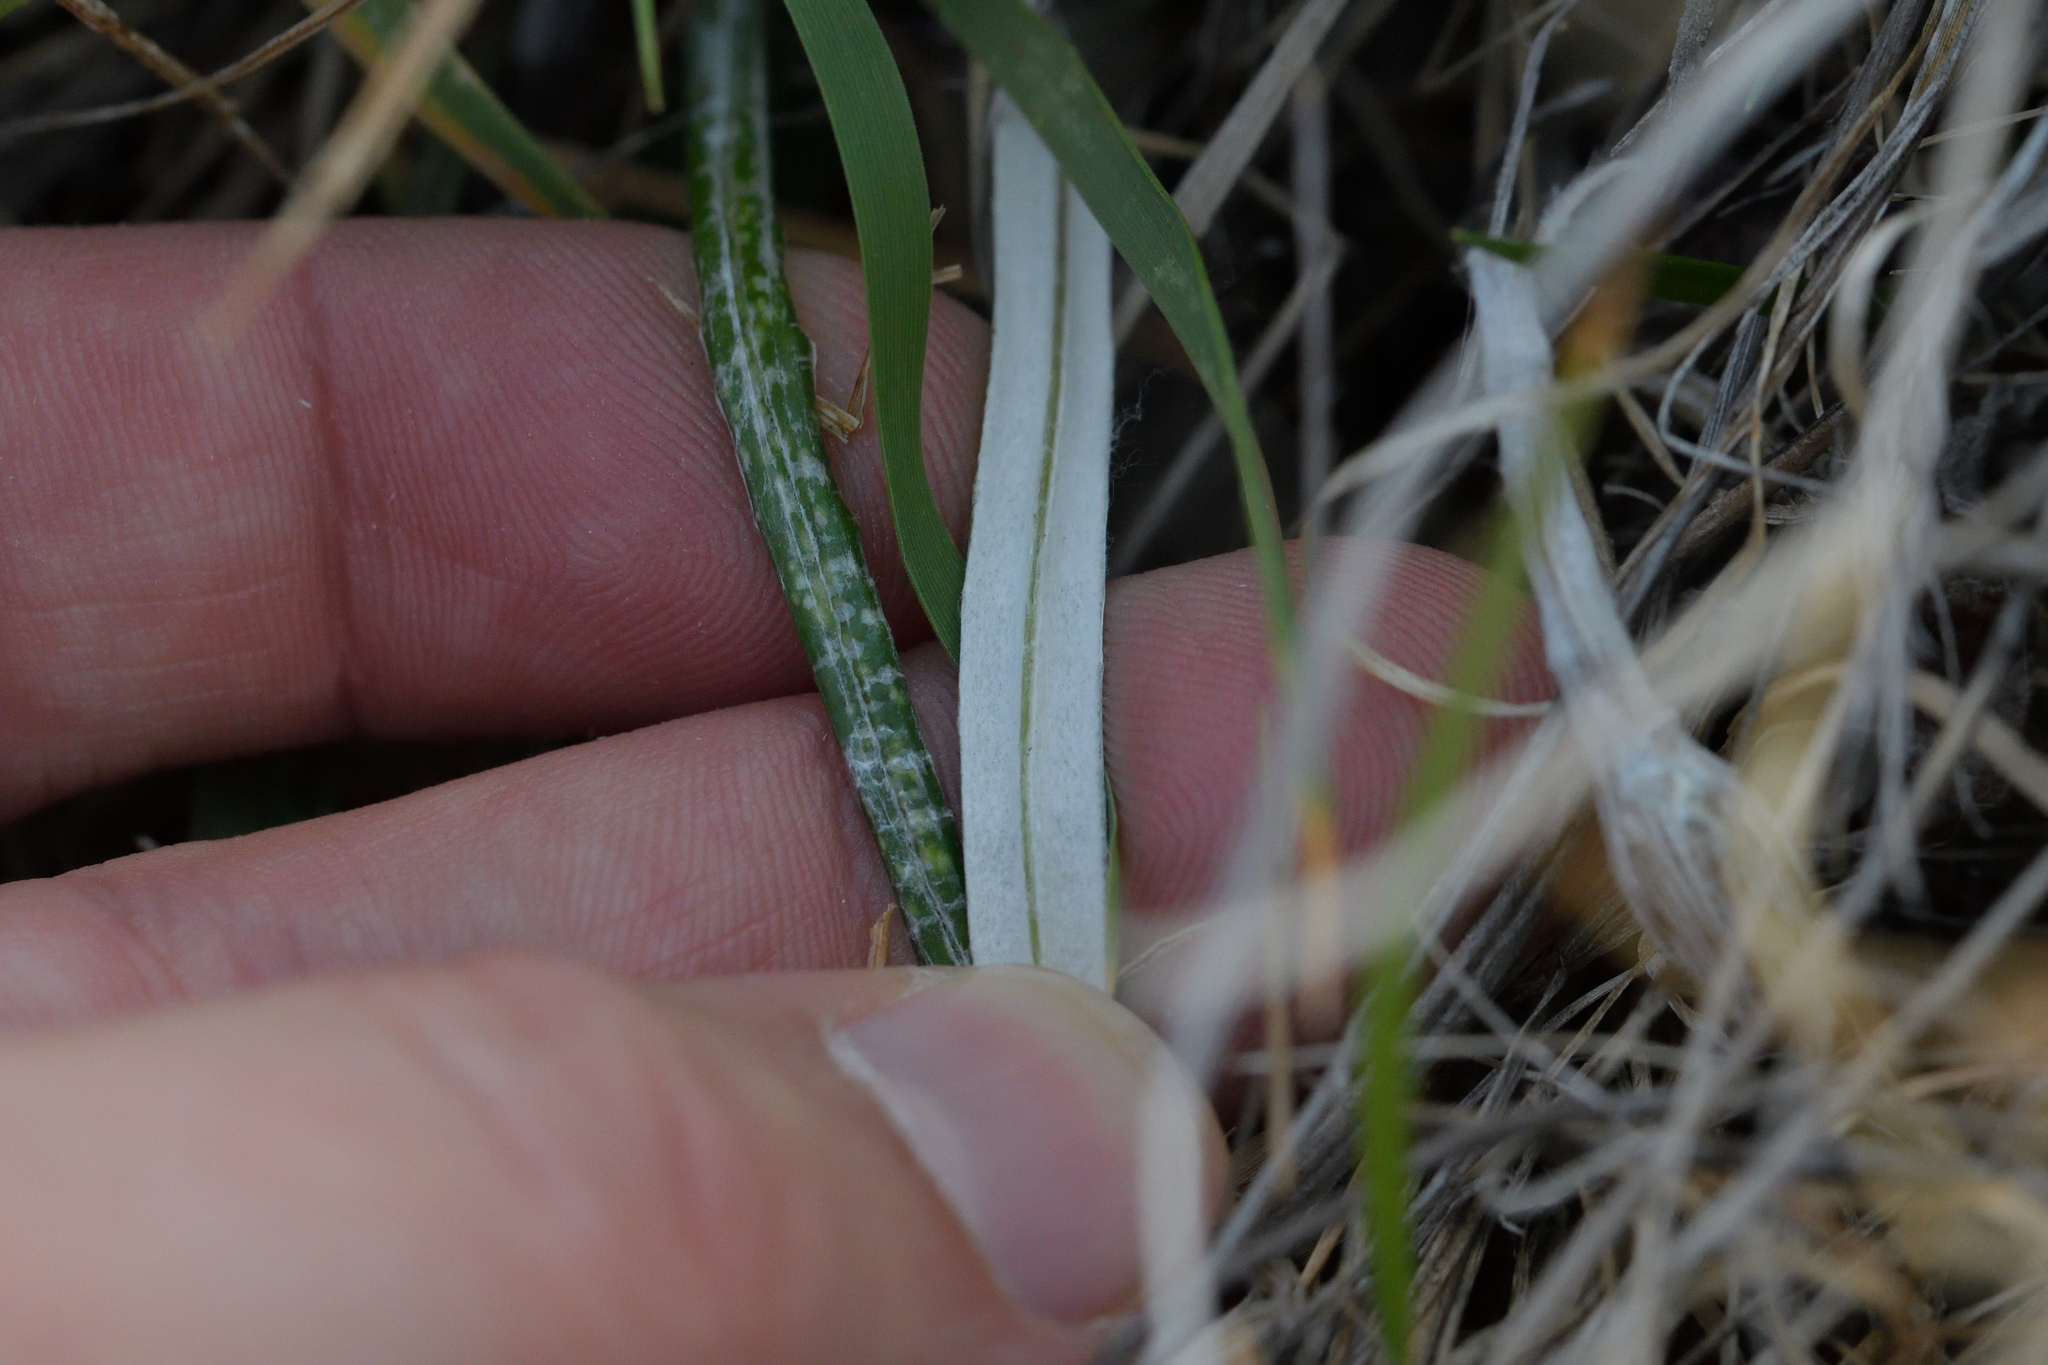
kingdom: Plantae
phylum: Tracheophyta
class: Magnoliopsida
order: Asterales
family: Asteraceae
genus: Celmisia
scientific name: Celmisia gracilenta
